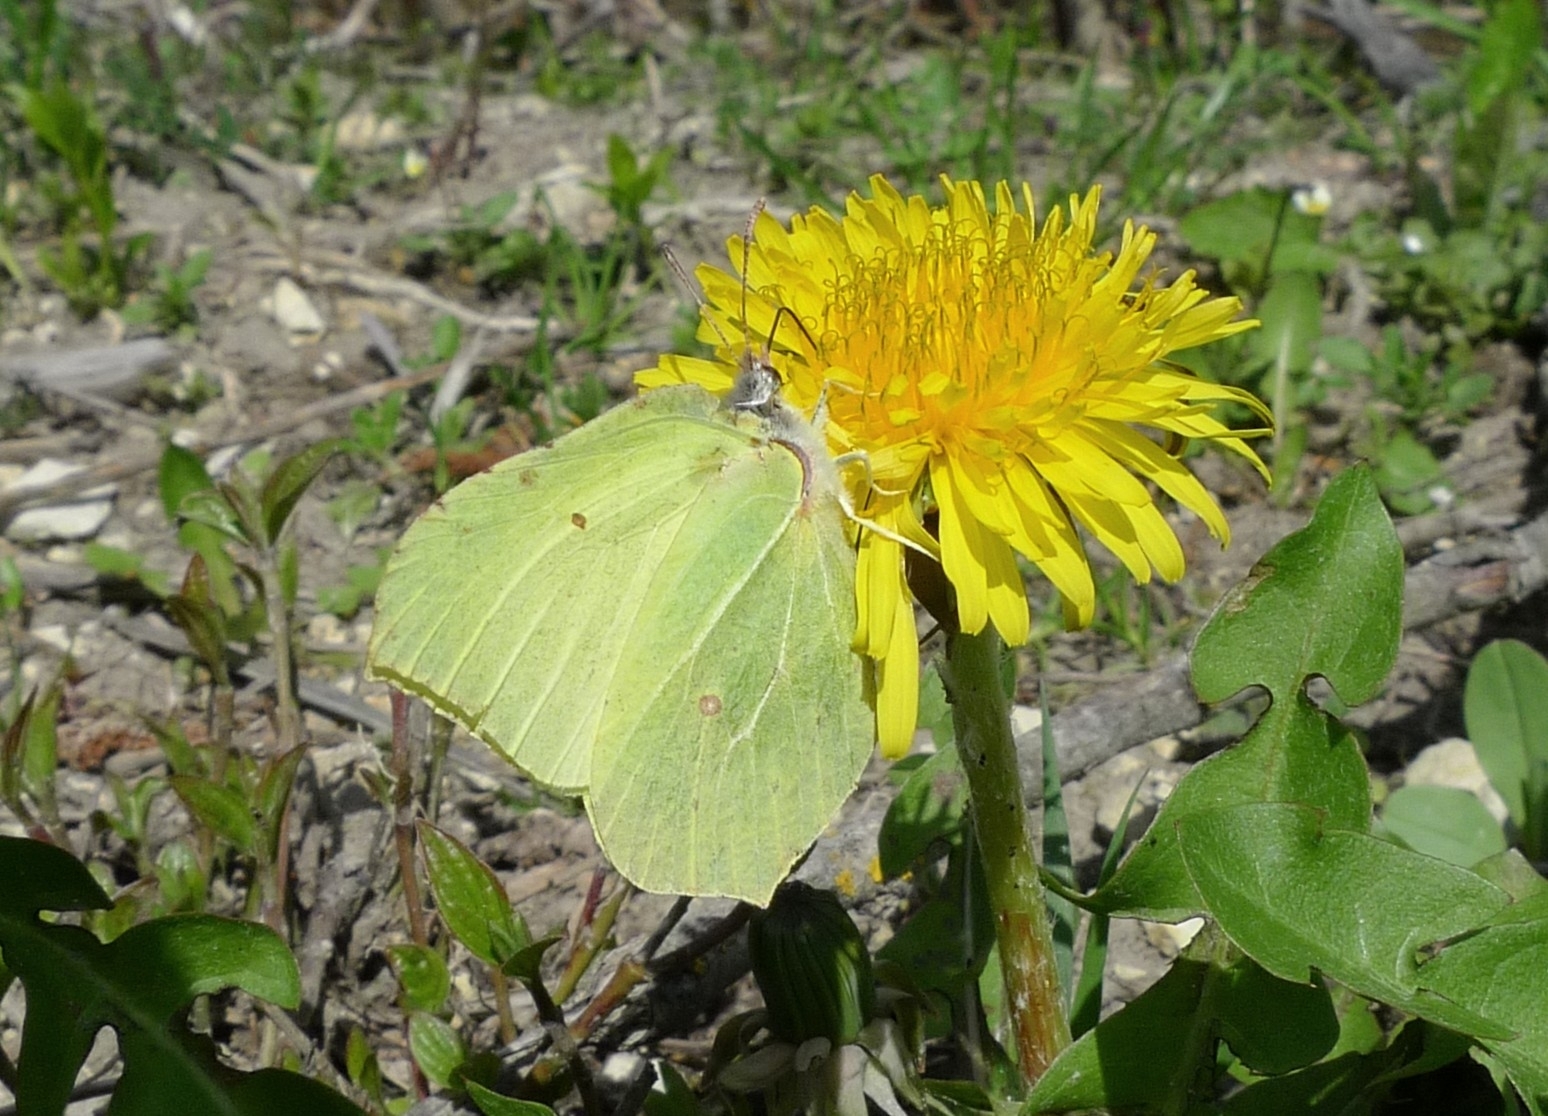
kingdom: Animalia
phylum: Arthropoda
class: Insecta
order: Lepidoptera
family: Pieridae
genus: Gonepteryx
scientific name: Gonepteryx rhamni
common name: Brimstone
